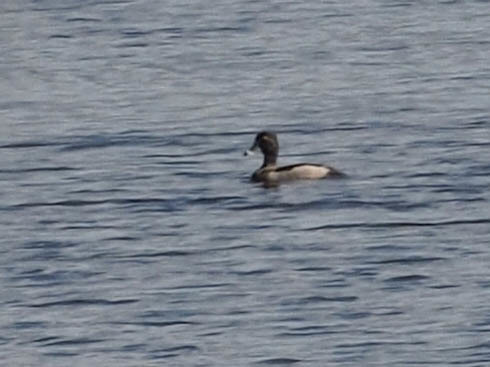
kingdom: Animalia
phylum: Chordata
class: Aves
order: Anseriformes
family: Anatidae
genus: Aythya
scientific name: Aythya collaris
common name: Ring-necked duck
